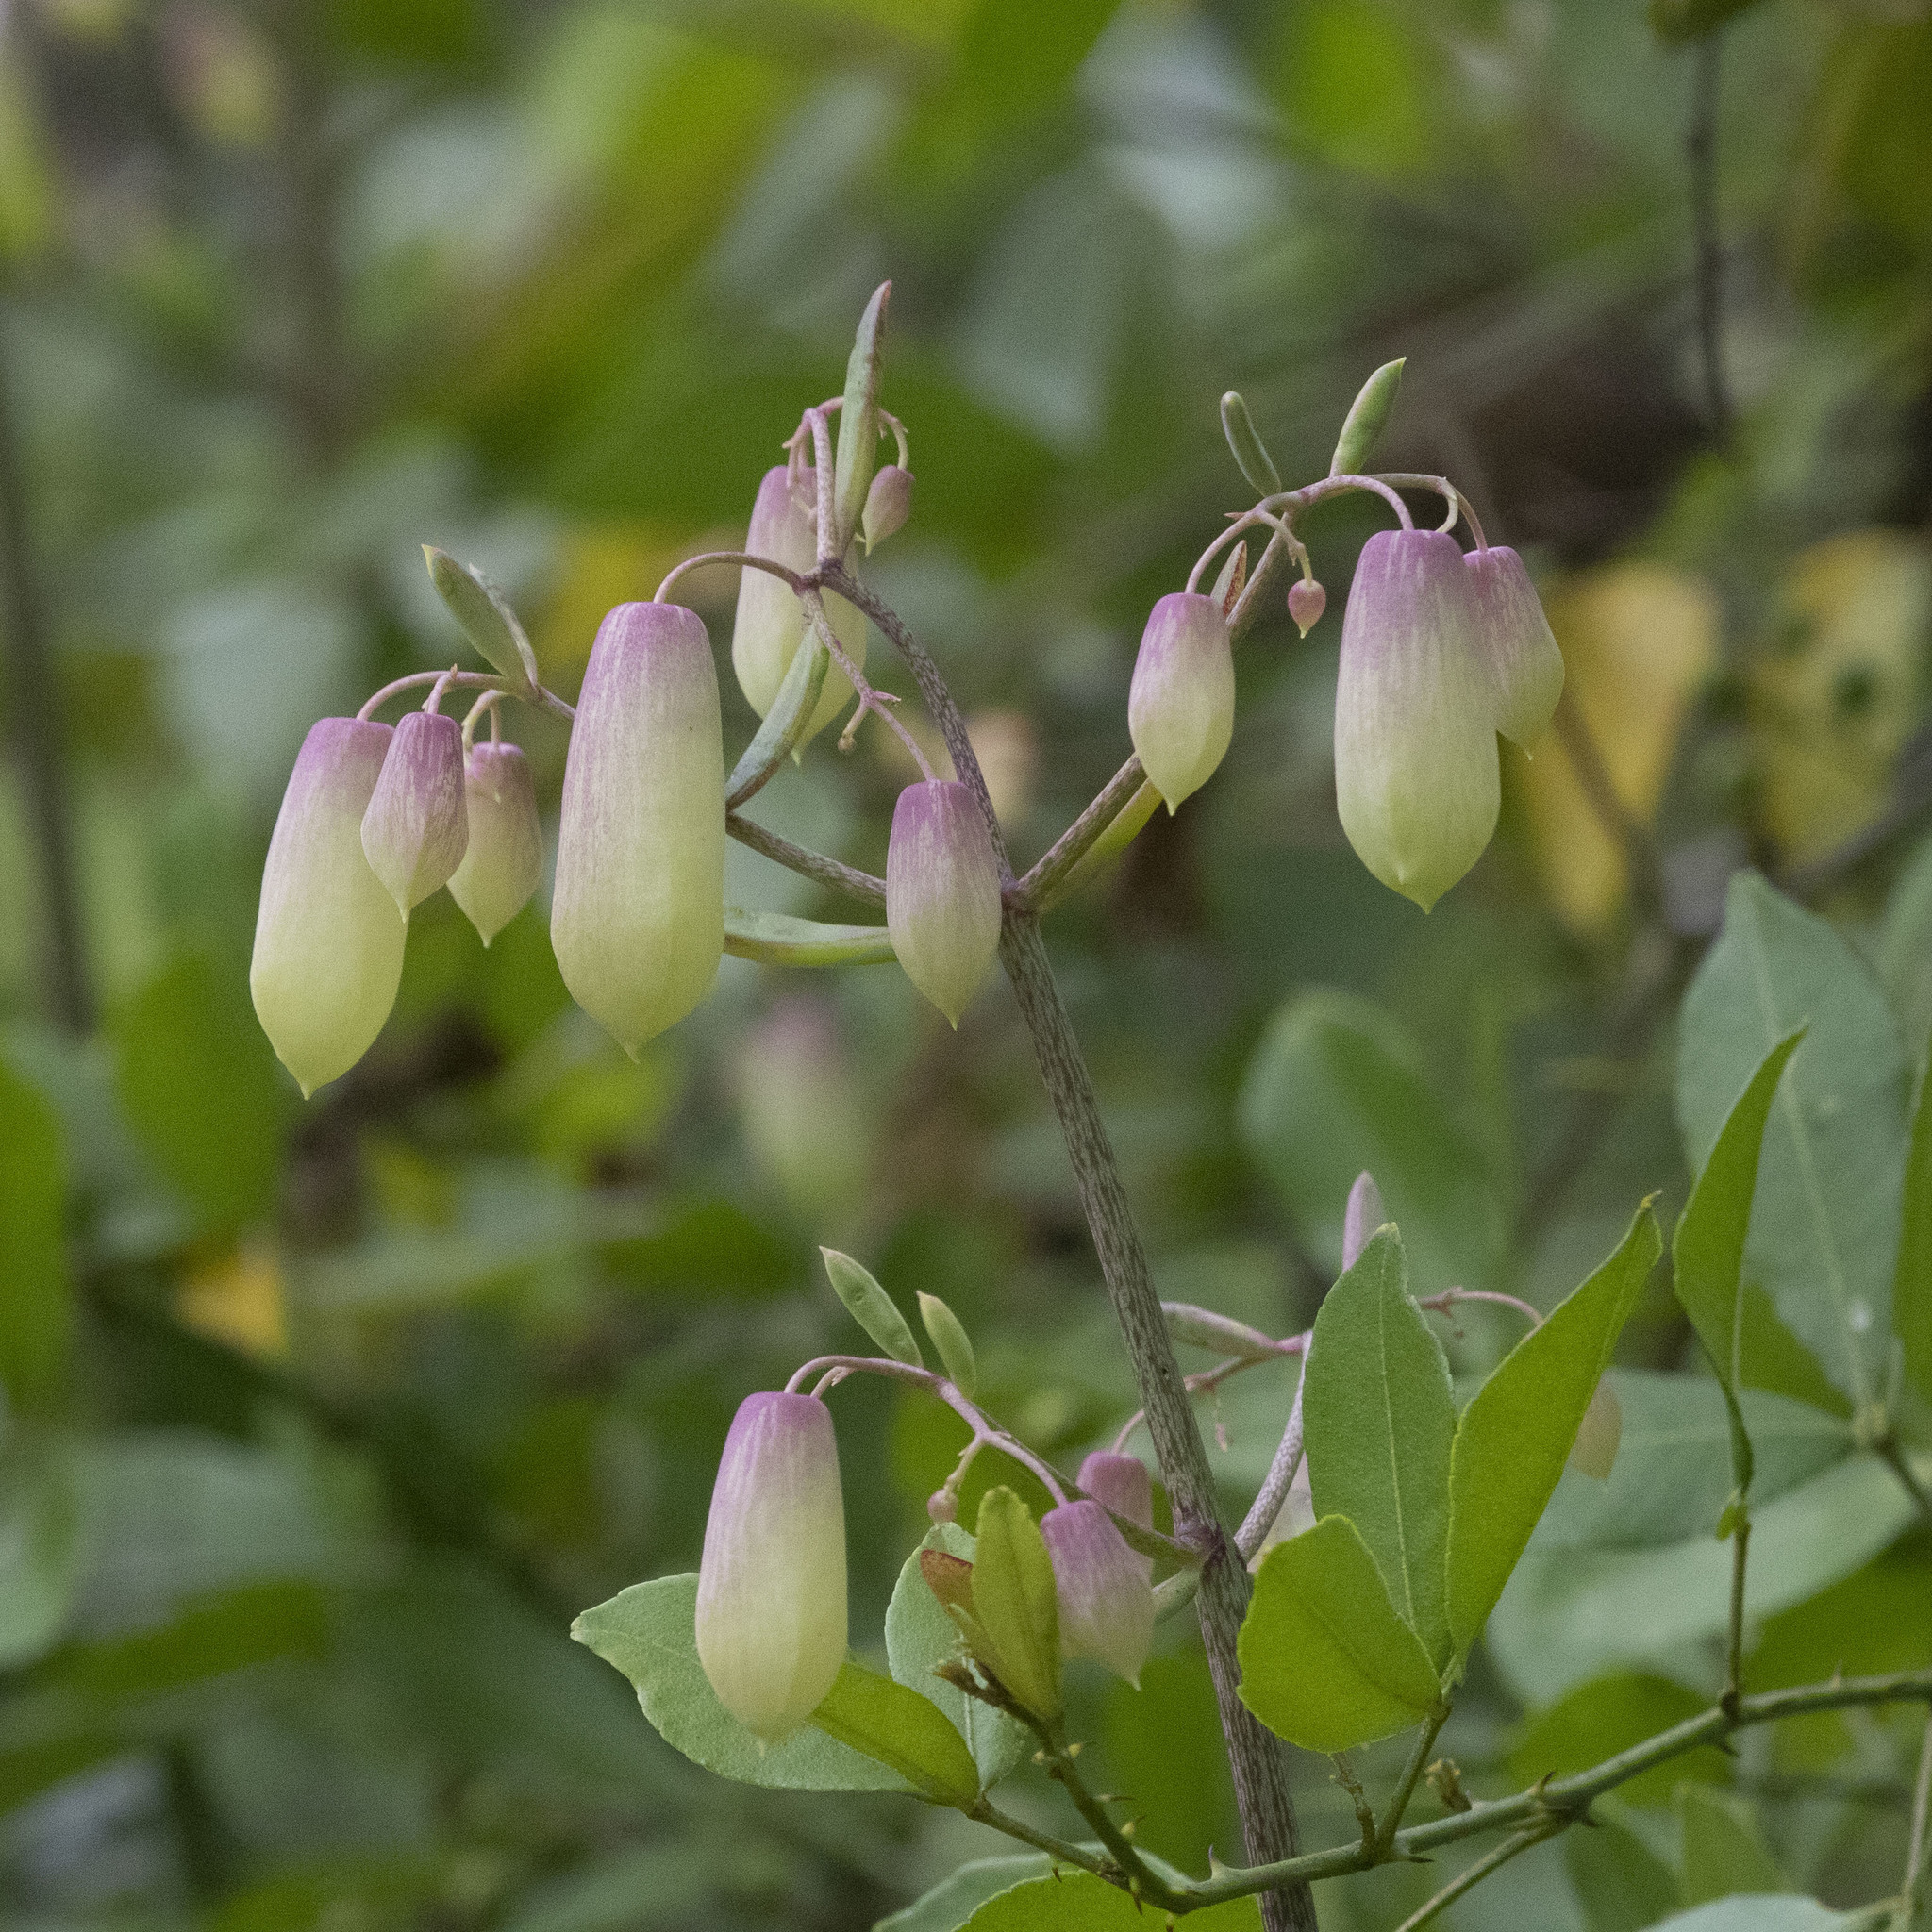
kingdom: Plantae
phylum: Tracheophyta
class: Magnoliopsida
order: Saxifragales
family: Crassulaceae
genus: Kalanchoe
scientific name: Kalanchoe pinnata
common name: Cathedral bells
